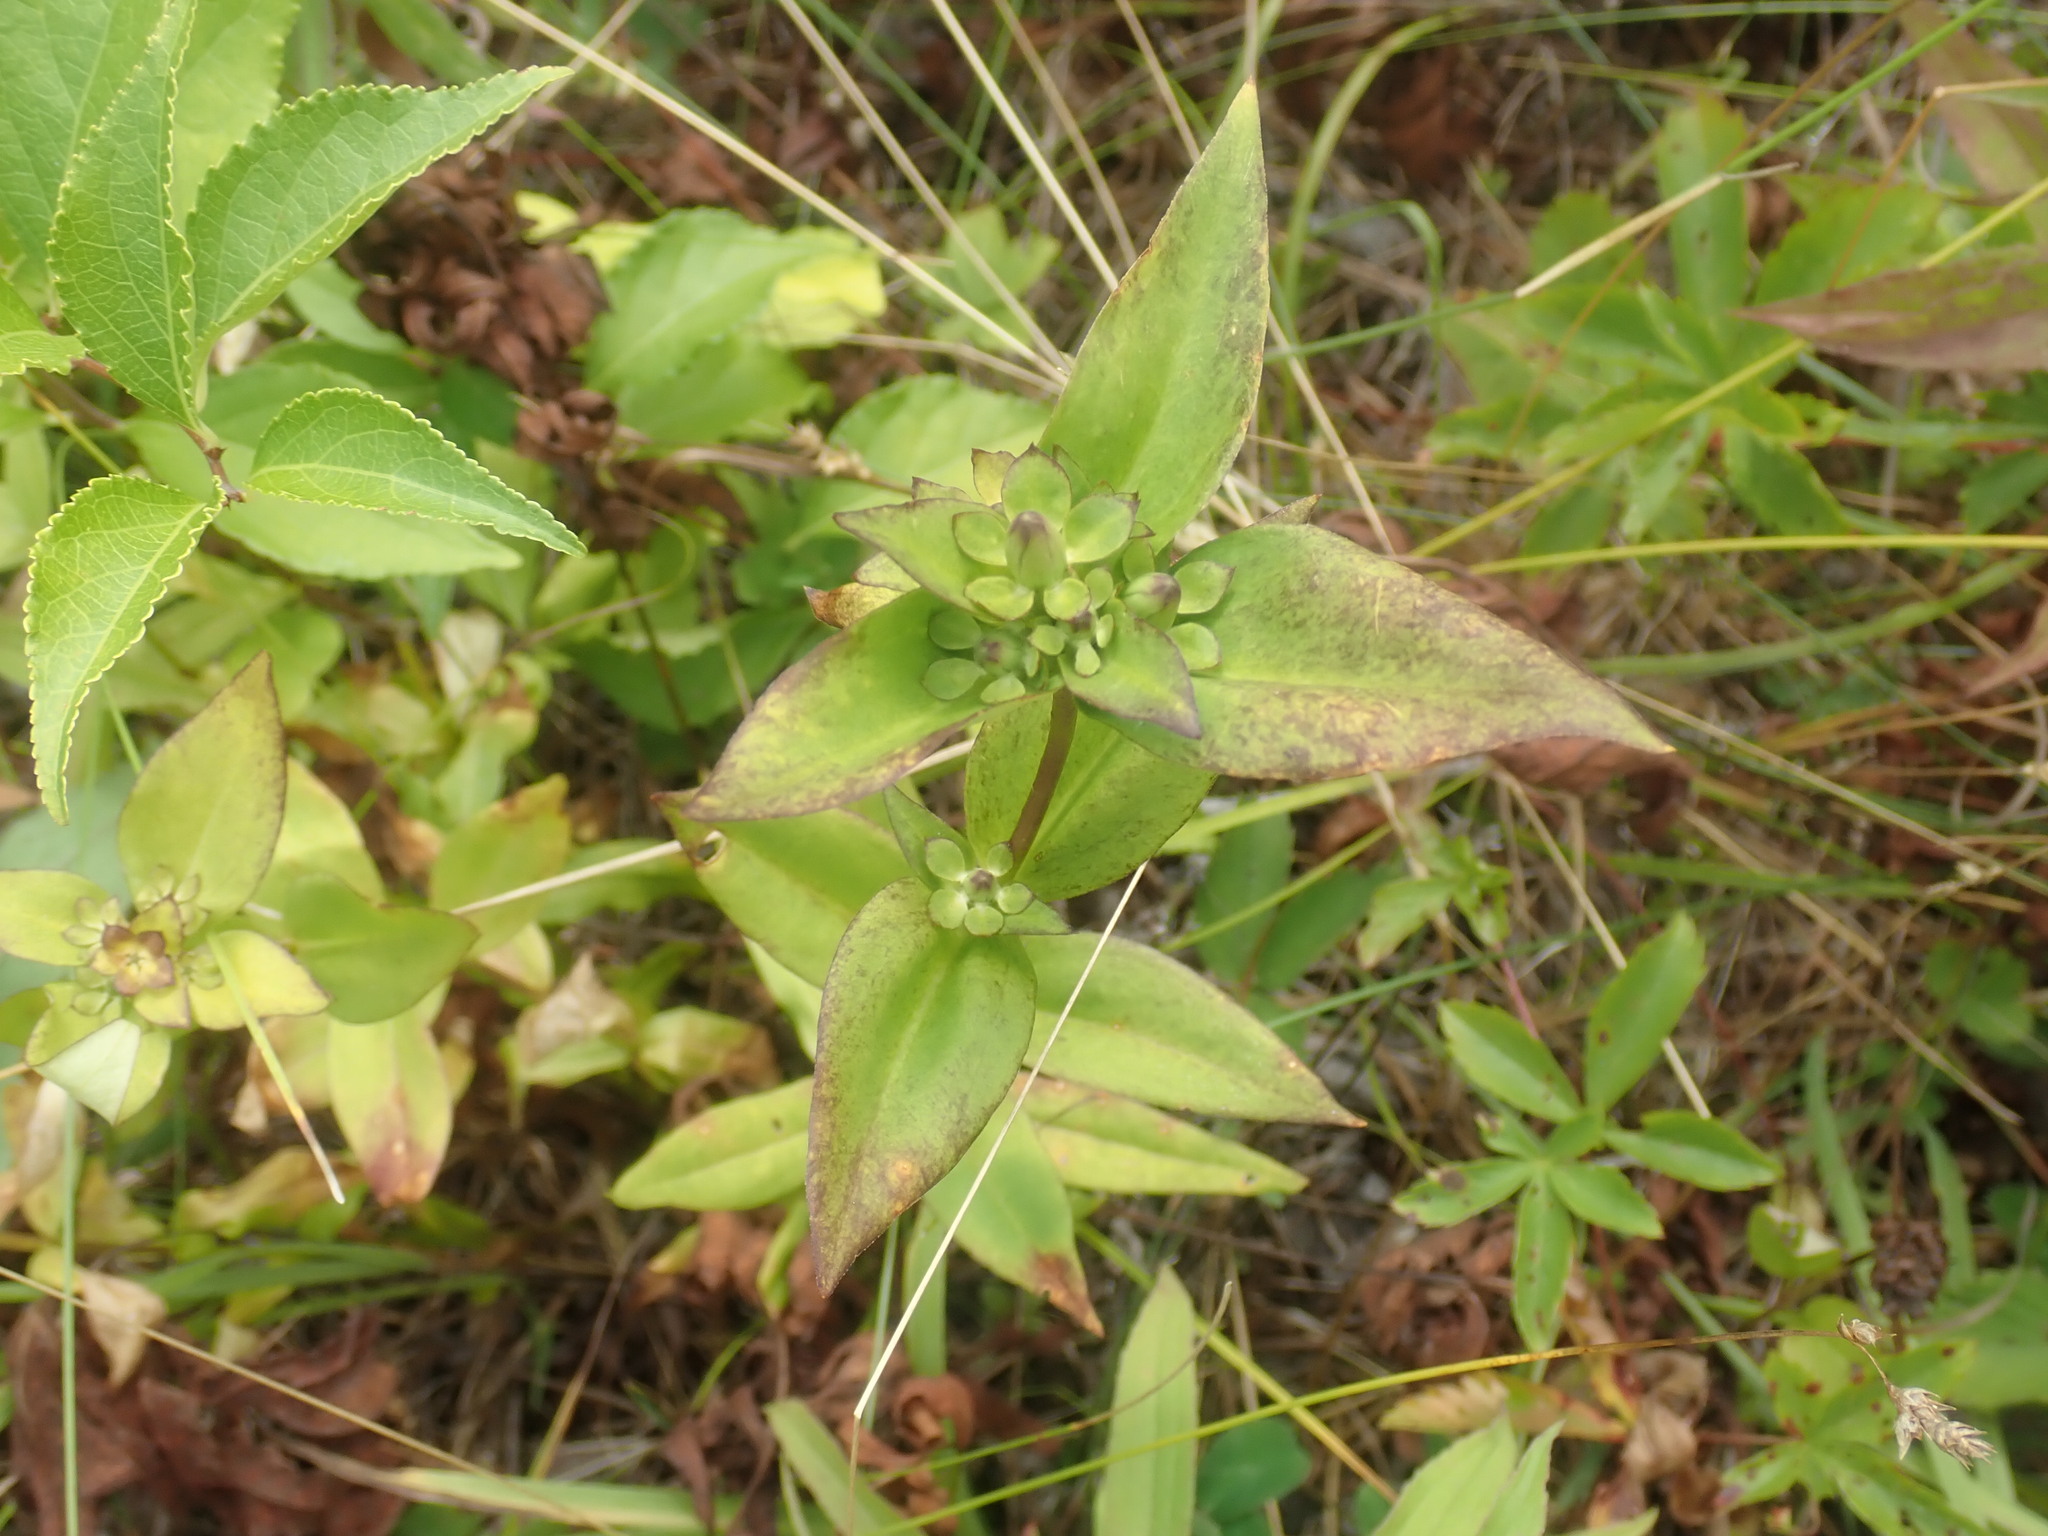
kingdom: Plantae
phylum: Tracheophyta
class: Magnoliopsida
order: Gentianales
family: Gentianaceae
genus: Gentiana
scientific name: Gentiana clausa
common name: Blind gentian
